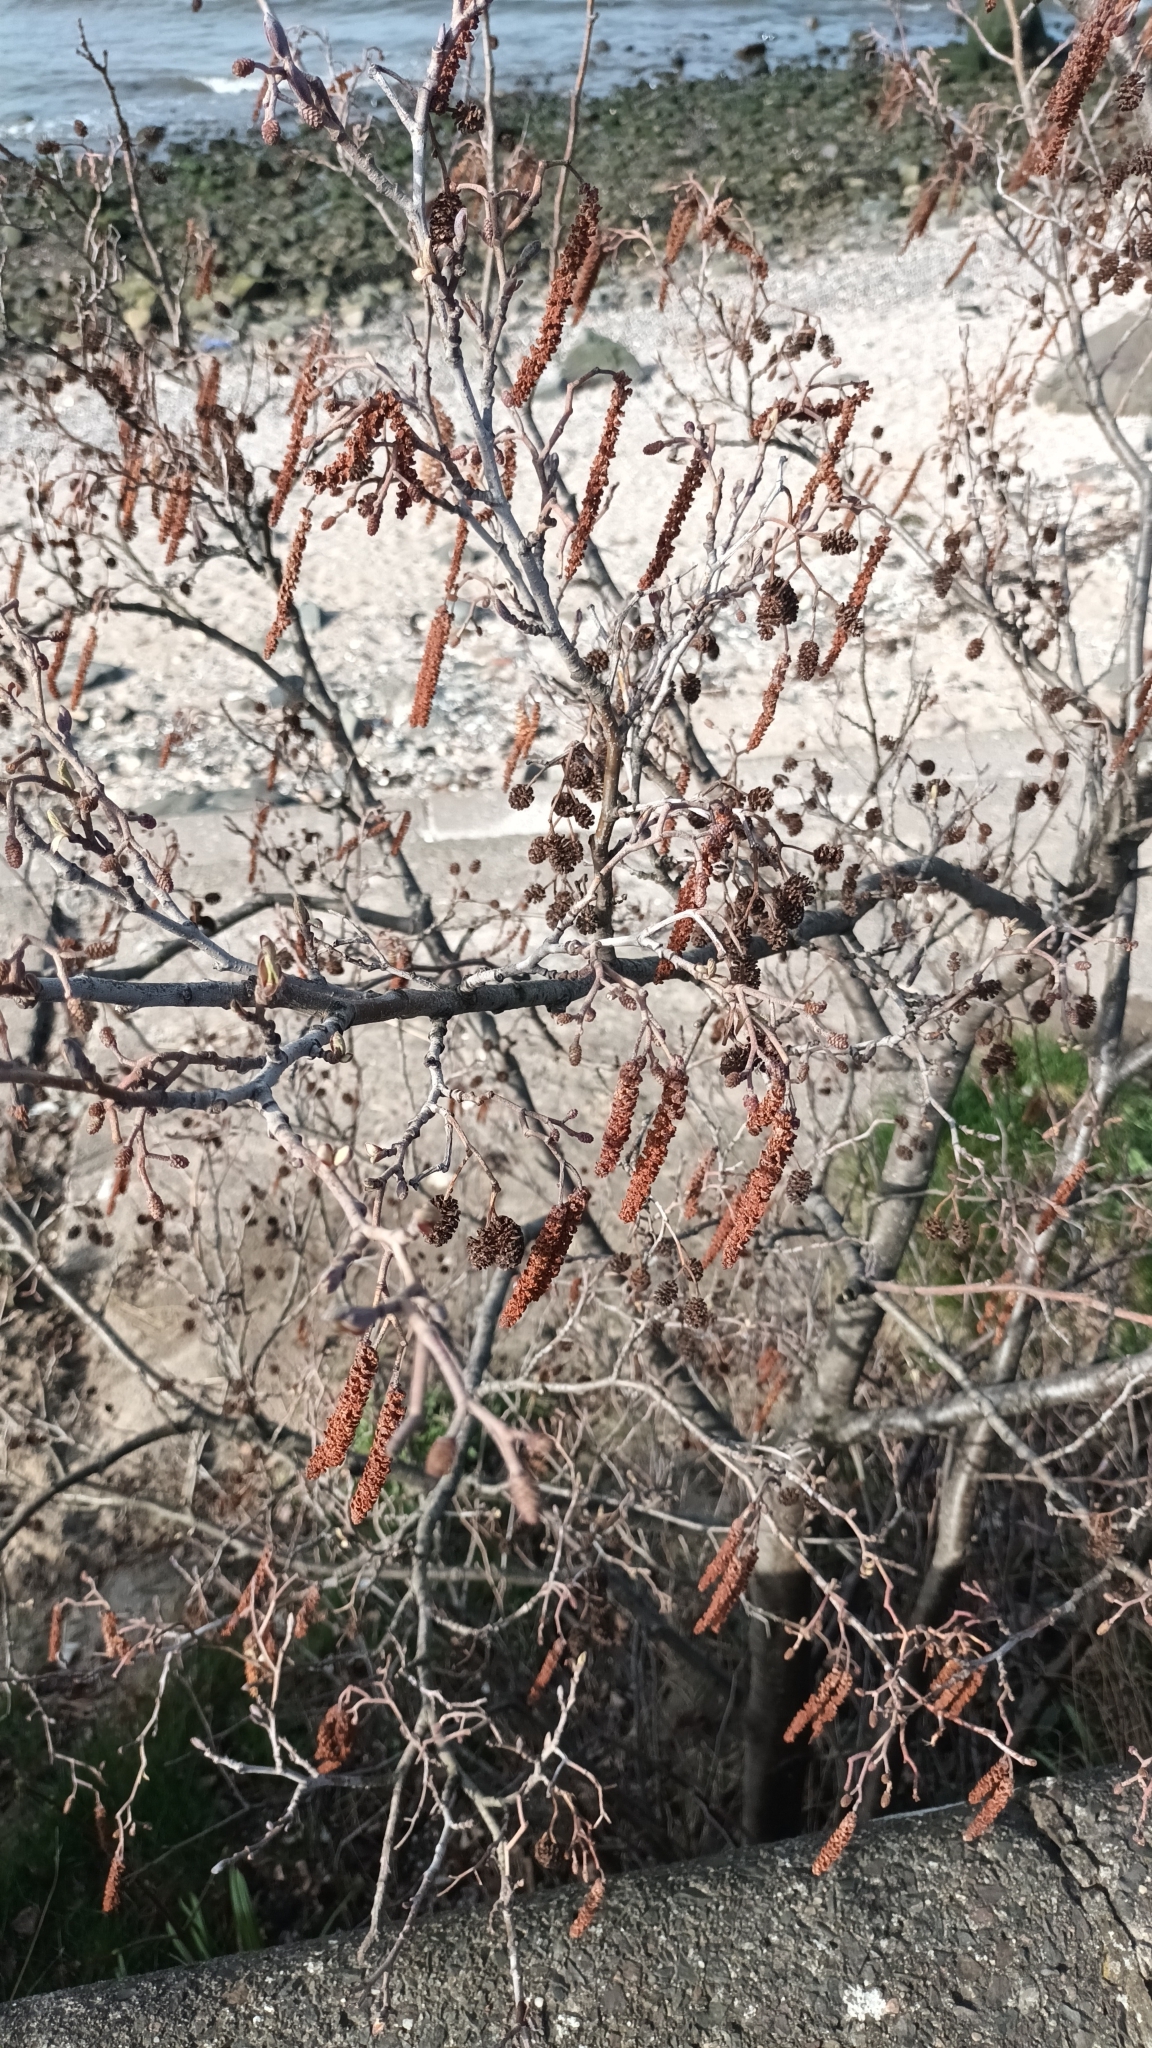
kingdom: Plantae
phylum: Tracheophyta
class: Magnoliopsida
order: Fagales
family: Betulaceae
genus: Alnus
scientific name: Alnus glutinosa
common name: Black alder
